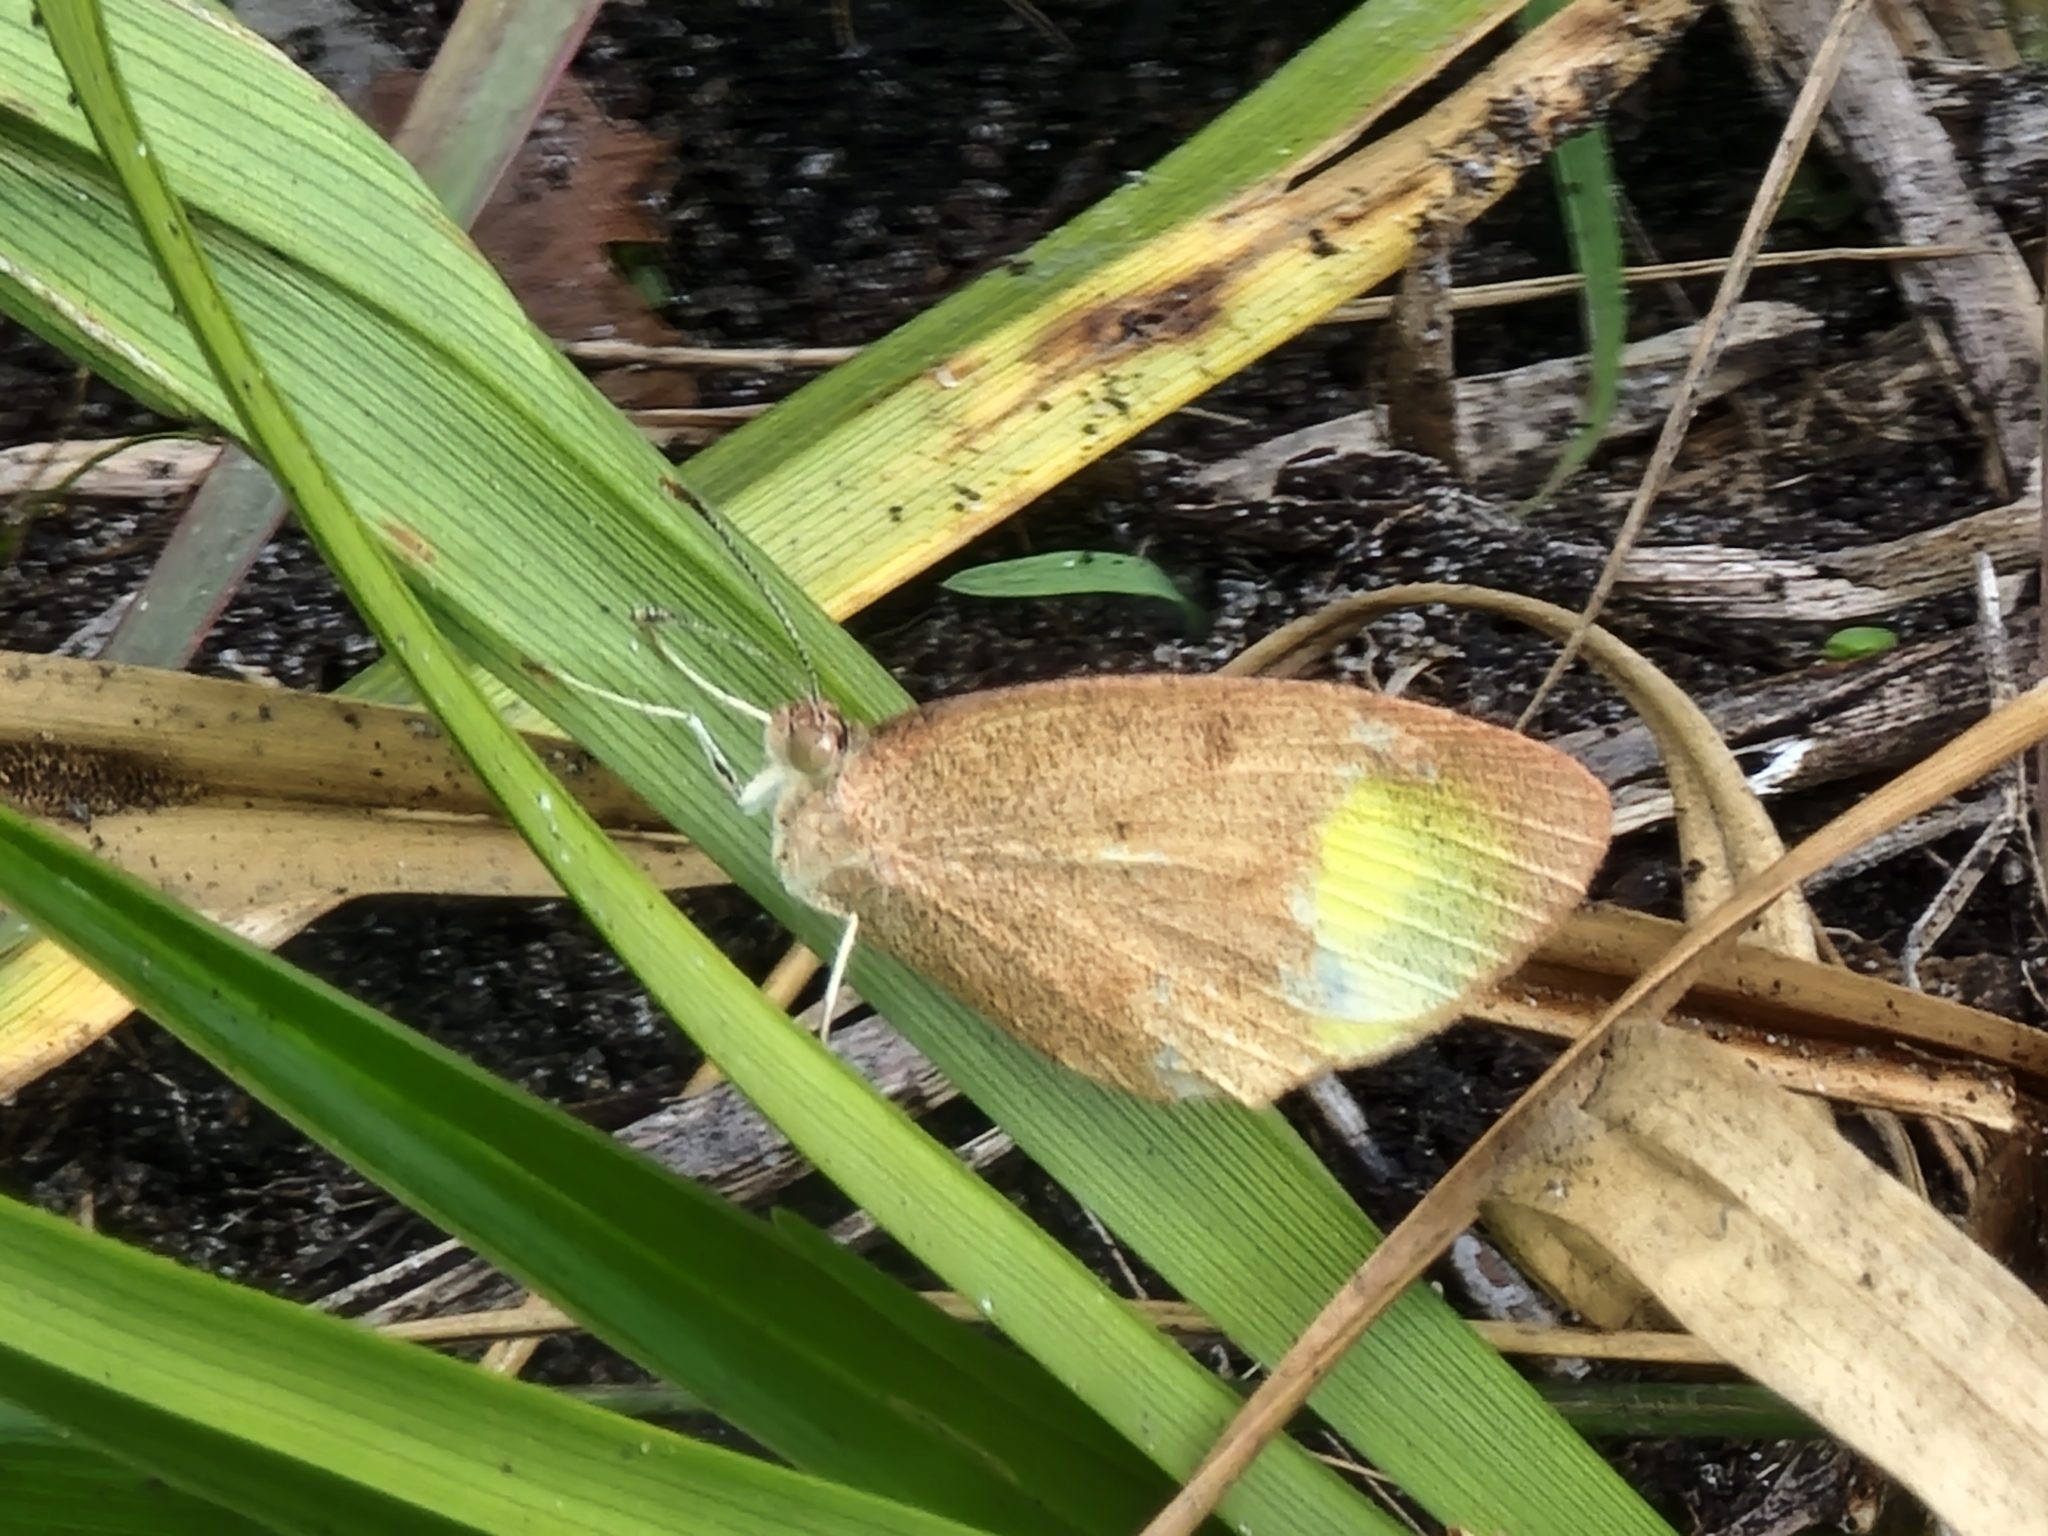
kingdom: Animalia
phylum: Arthropoda
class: Insecta
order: Lepidoptera
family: Pieridae
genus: Eurema
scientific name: Eurema daira
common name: Barred sulphur
